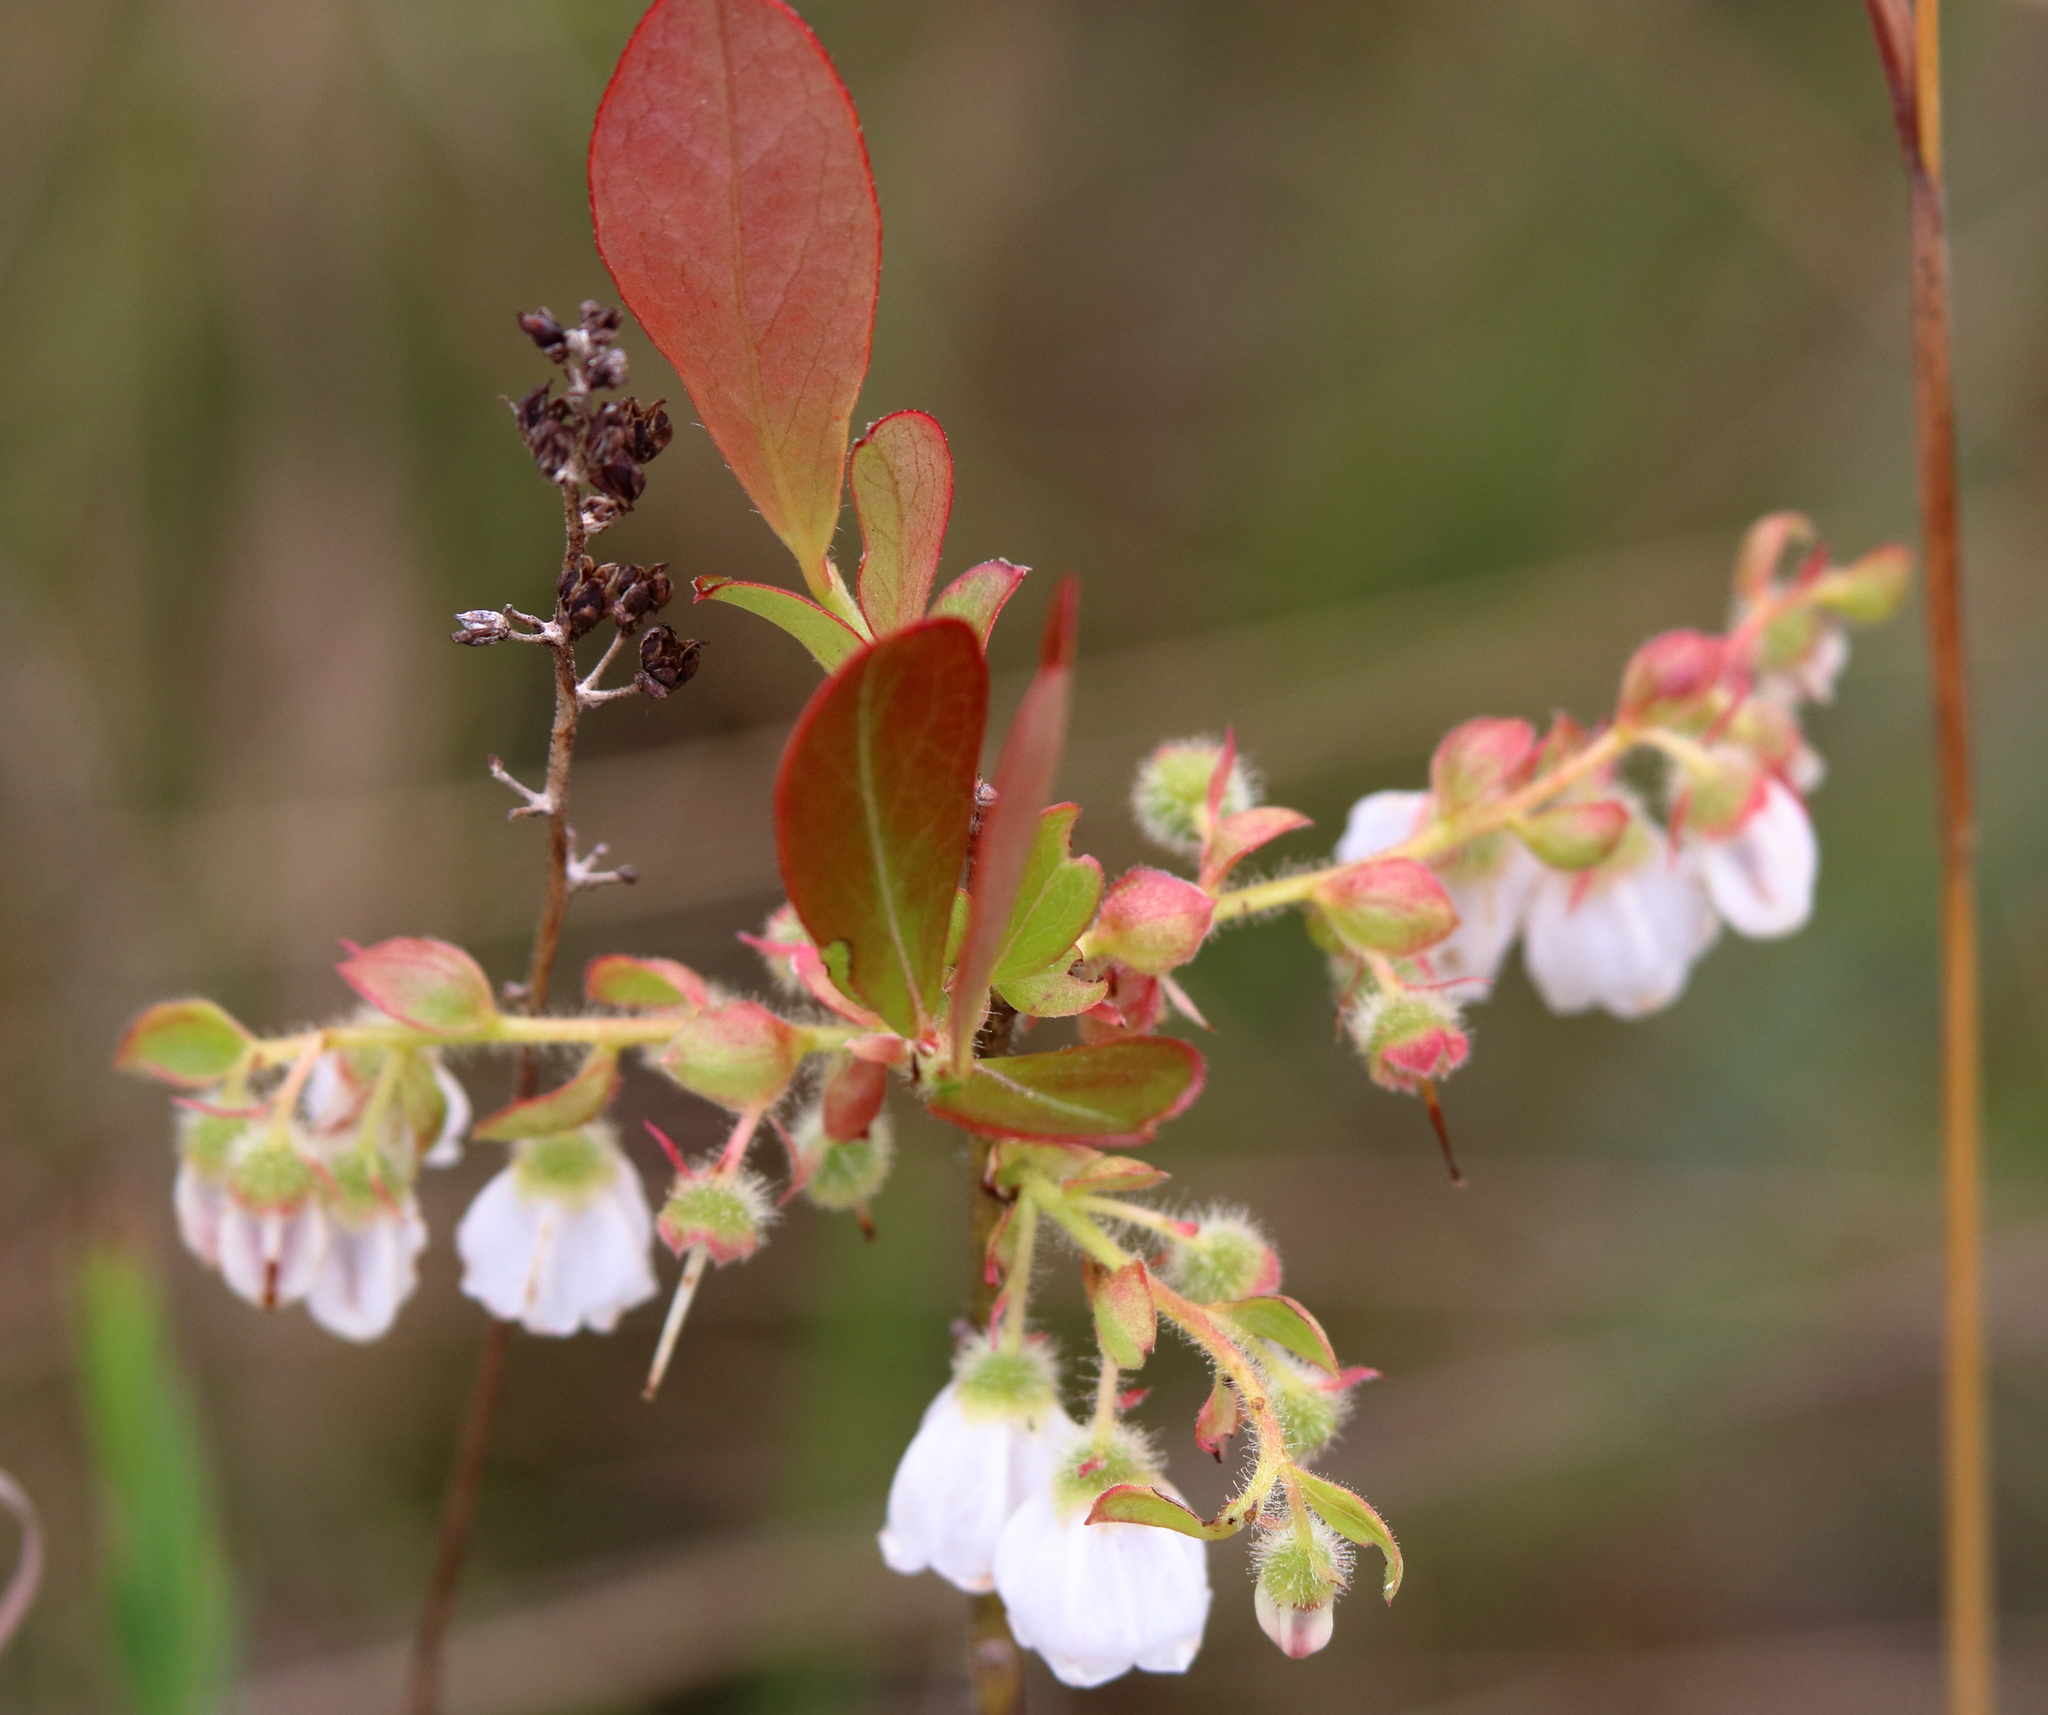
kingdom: Plantae
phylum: Tracheophyta
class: Magnoliopsida
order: Ericales
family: Ericaceae
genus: Gaylussacia
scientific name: Gaylussacia mosieri
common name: Hirsute huckleberry
